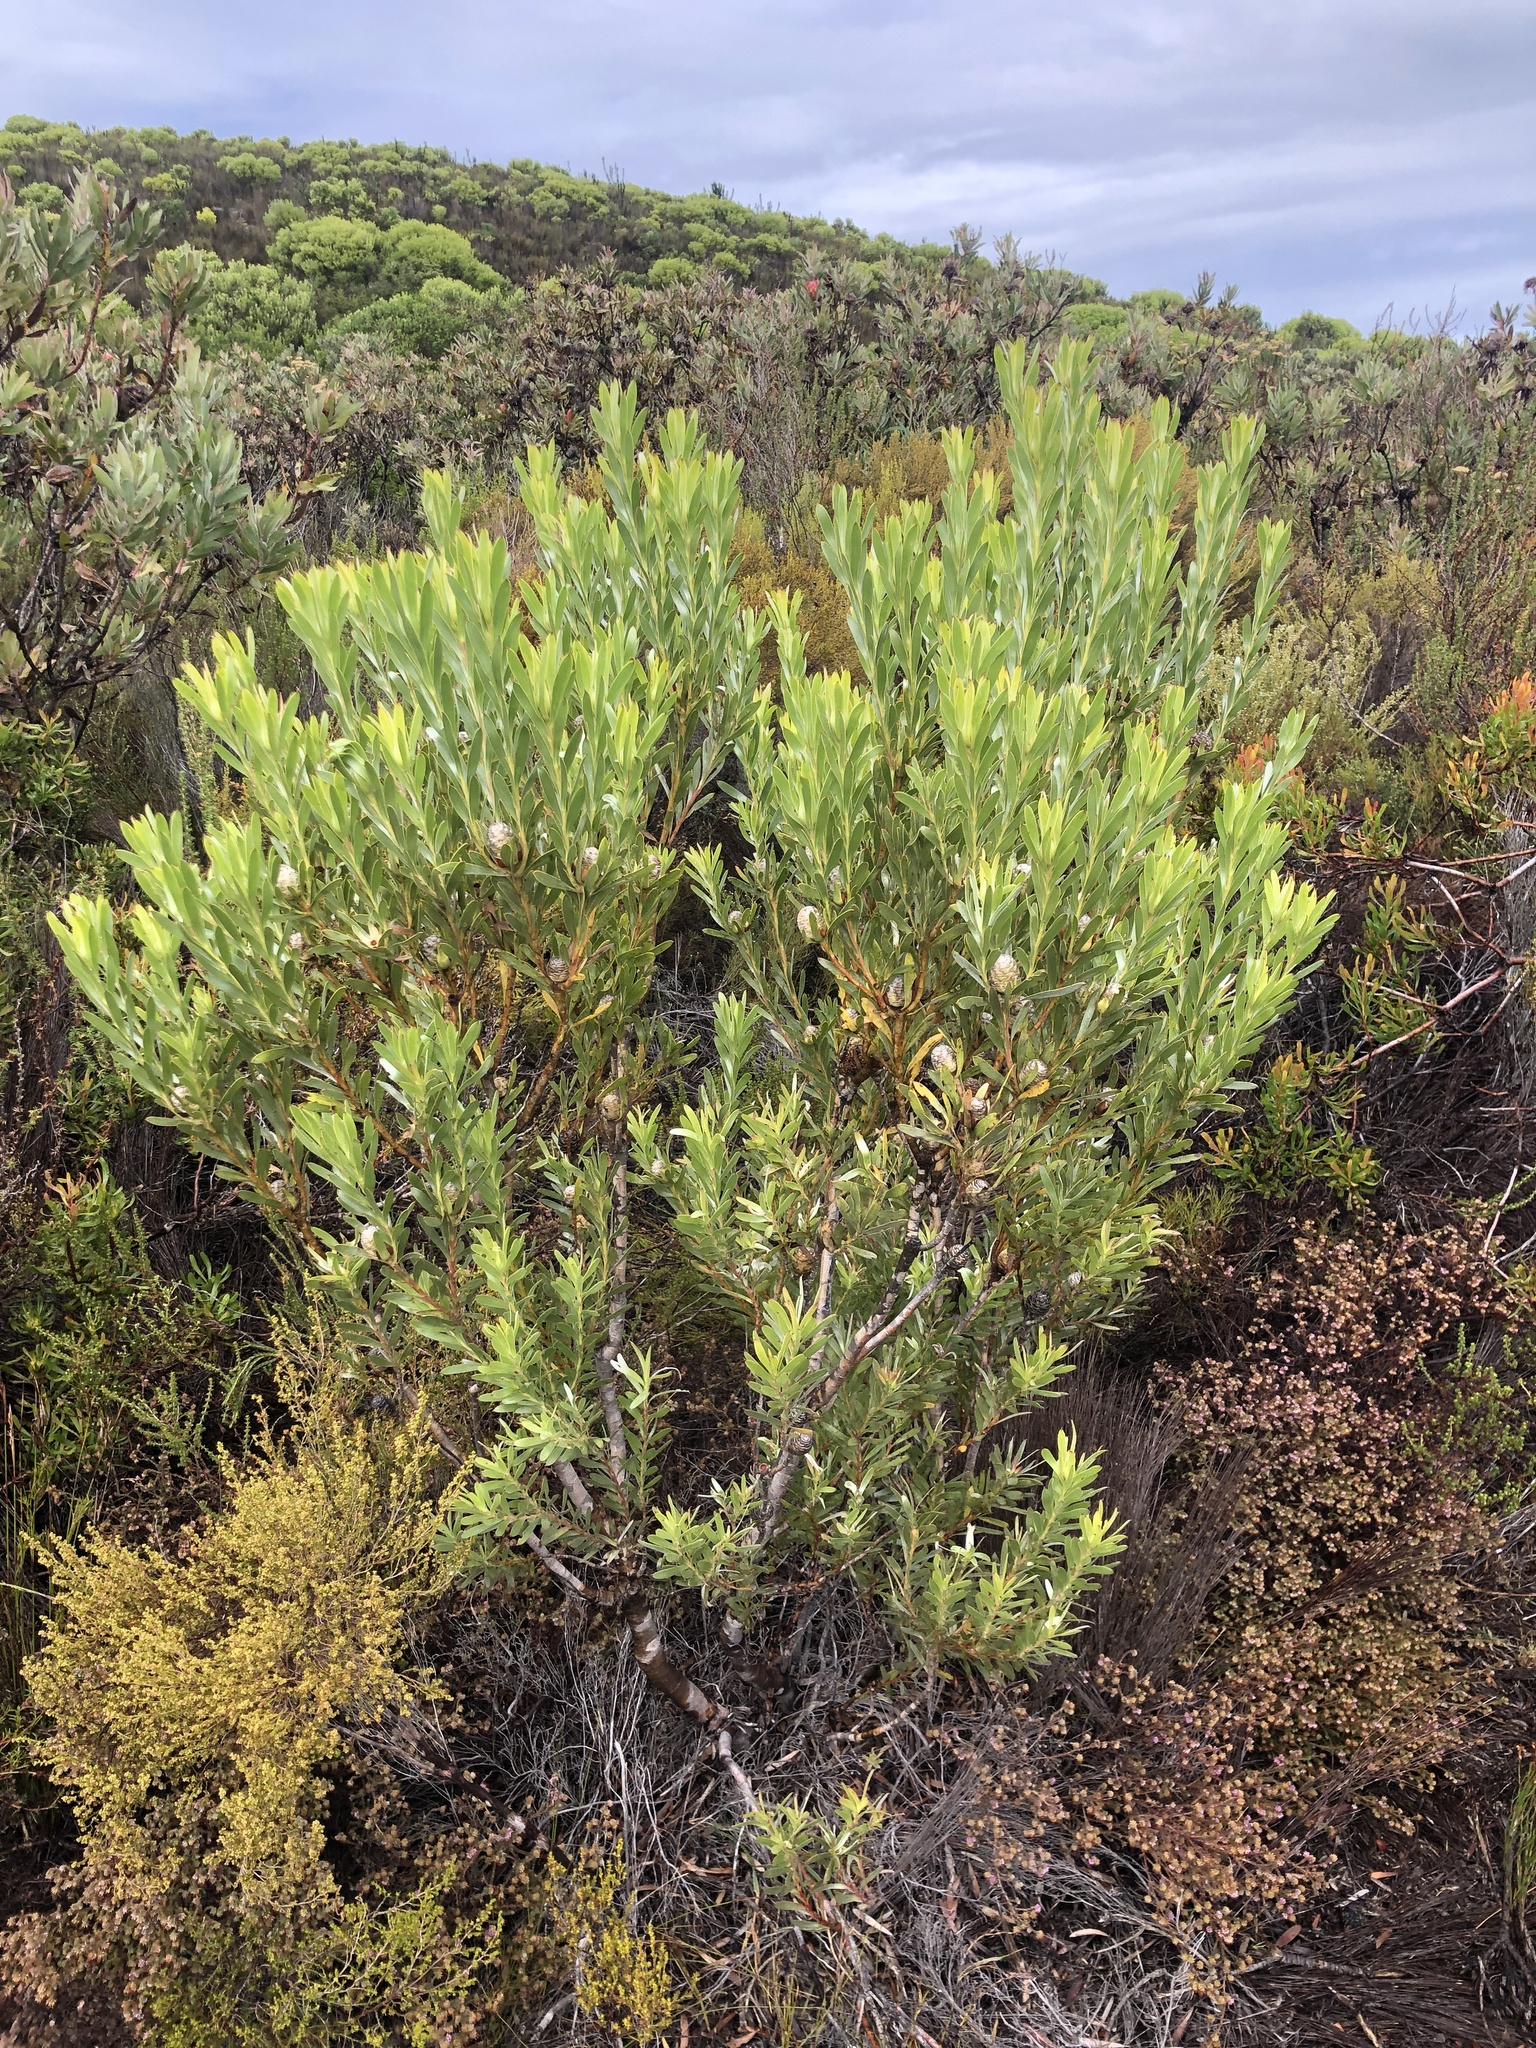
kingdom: Plantae
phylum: Tracheophyta
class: Magnoliopsida
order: Proteales
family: Proteaceae
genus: Leucadendron
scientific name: Leucadendron meridianum
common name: Limestone conebush
